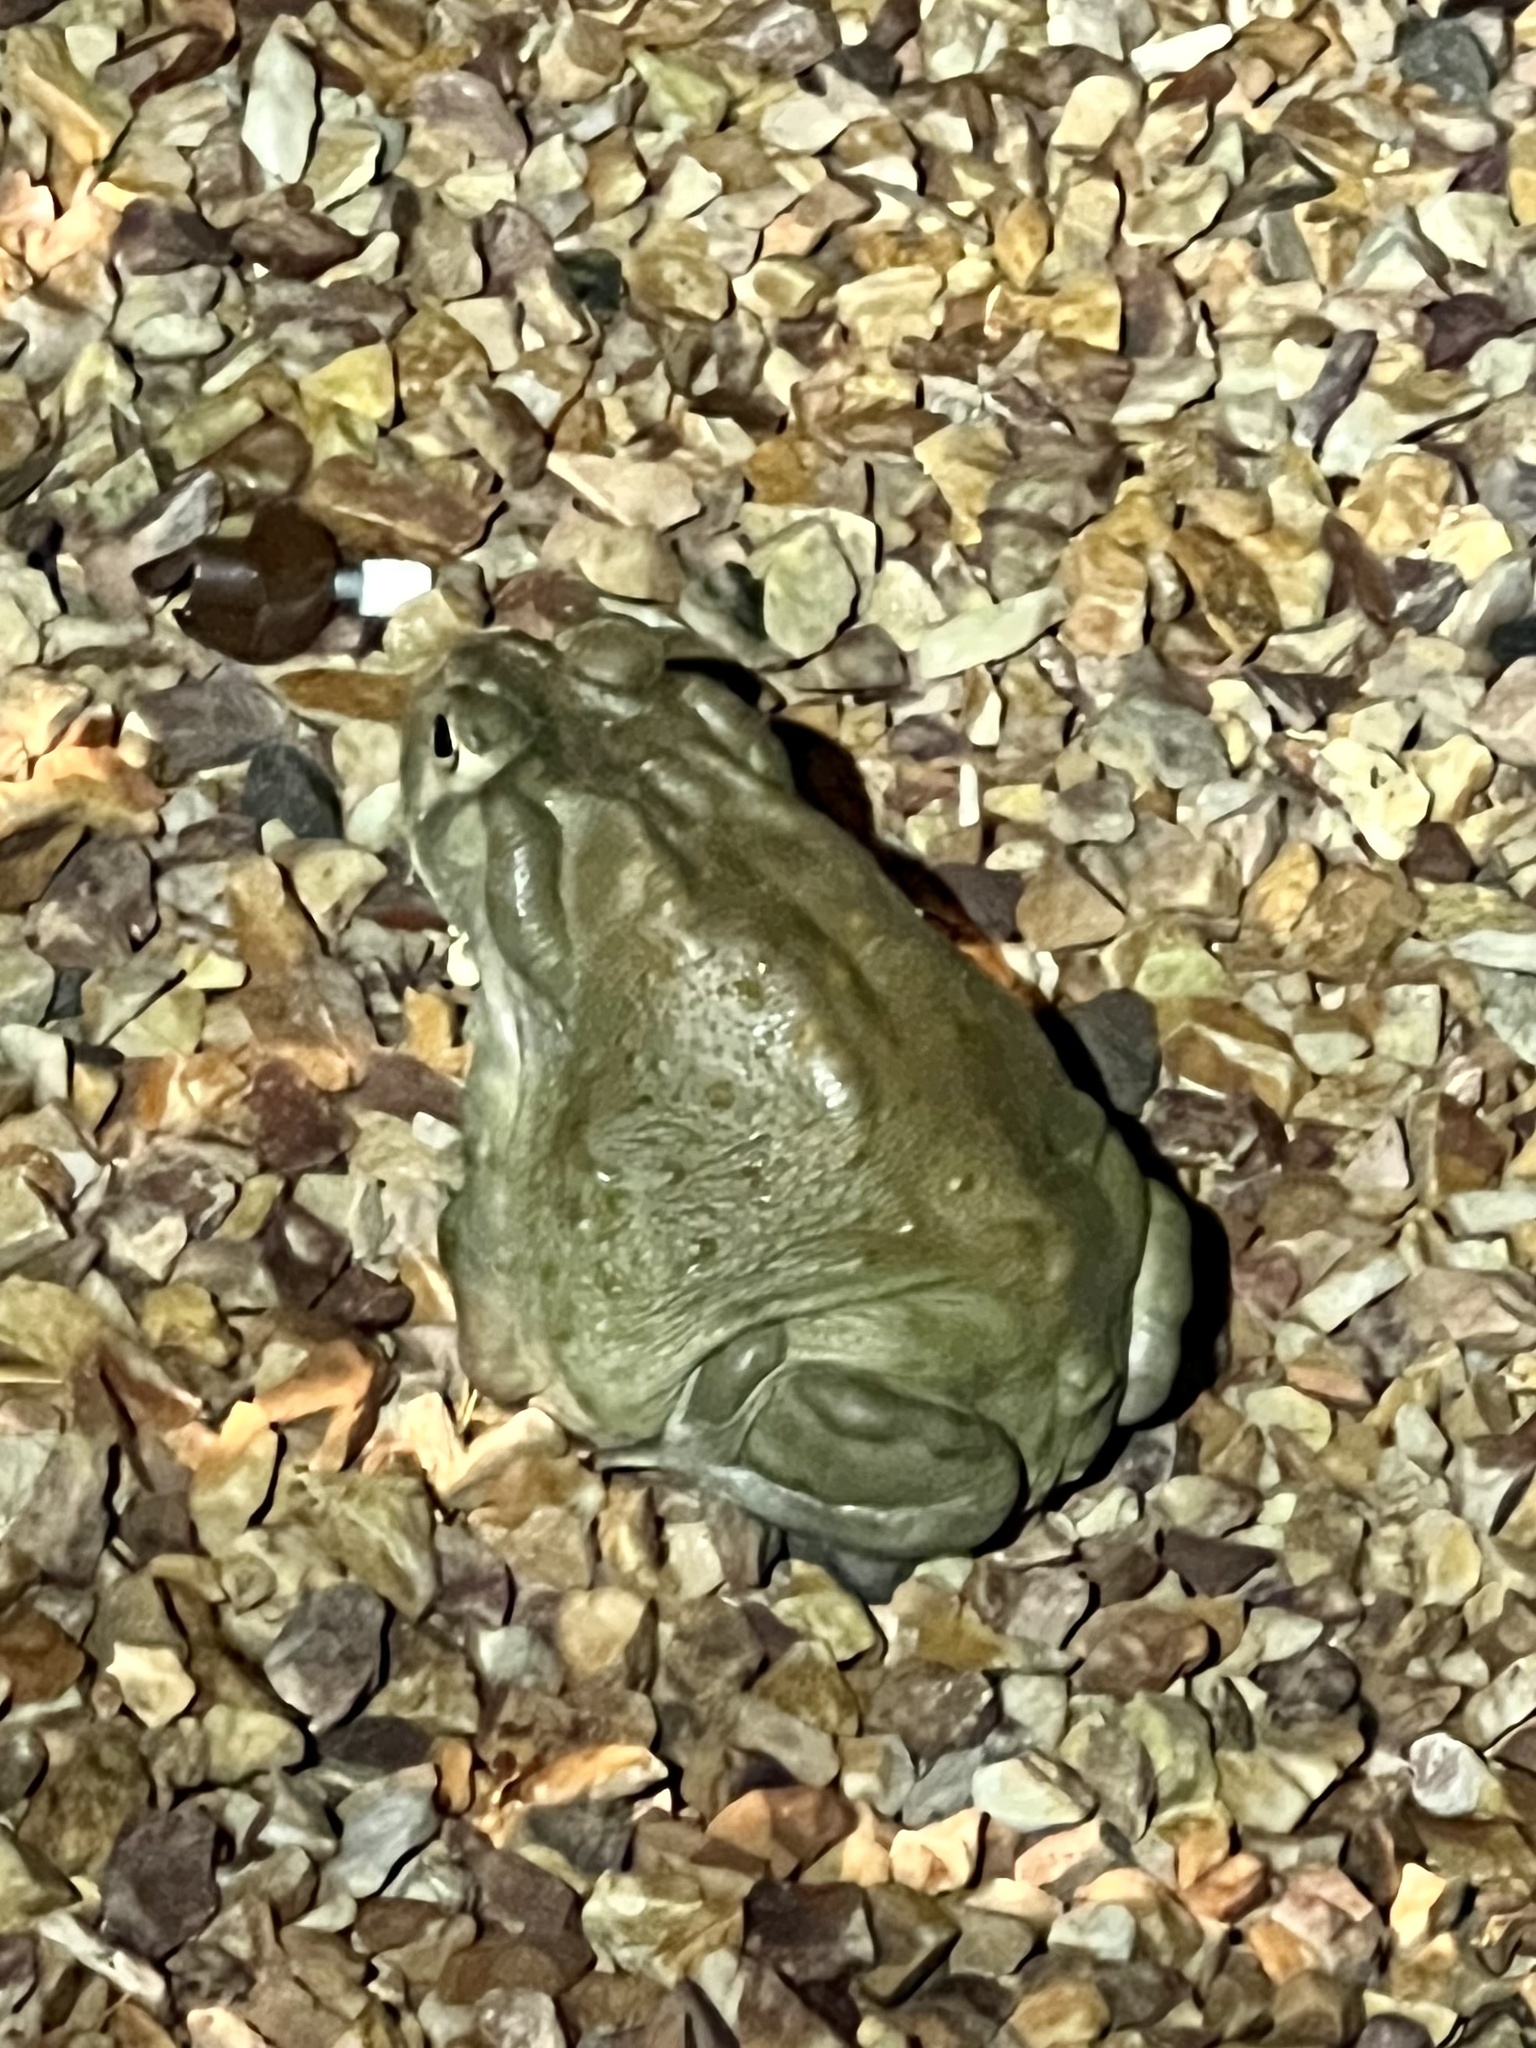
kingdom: Animalia
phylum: Chordata
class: Amphibia
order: Anura
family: Bufonidae
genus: Incilius
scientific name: Incilius alvarius
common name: Sonoran desert toad
